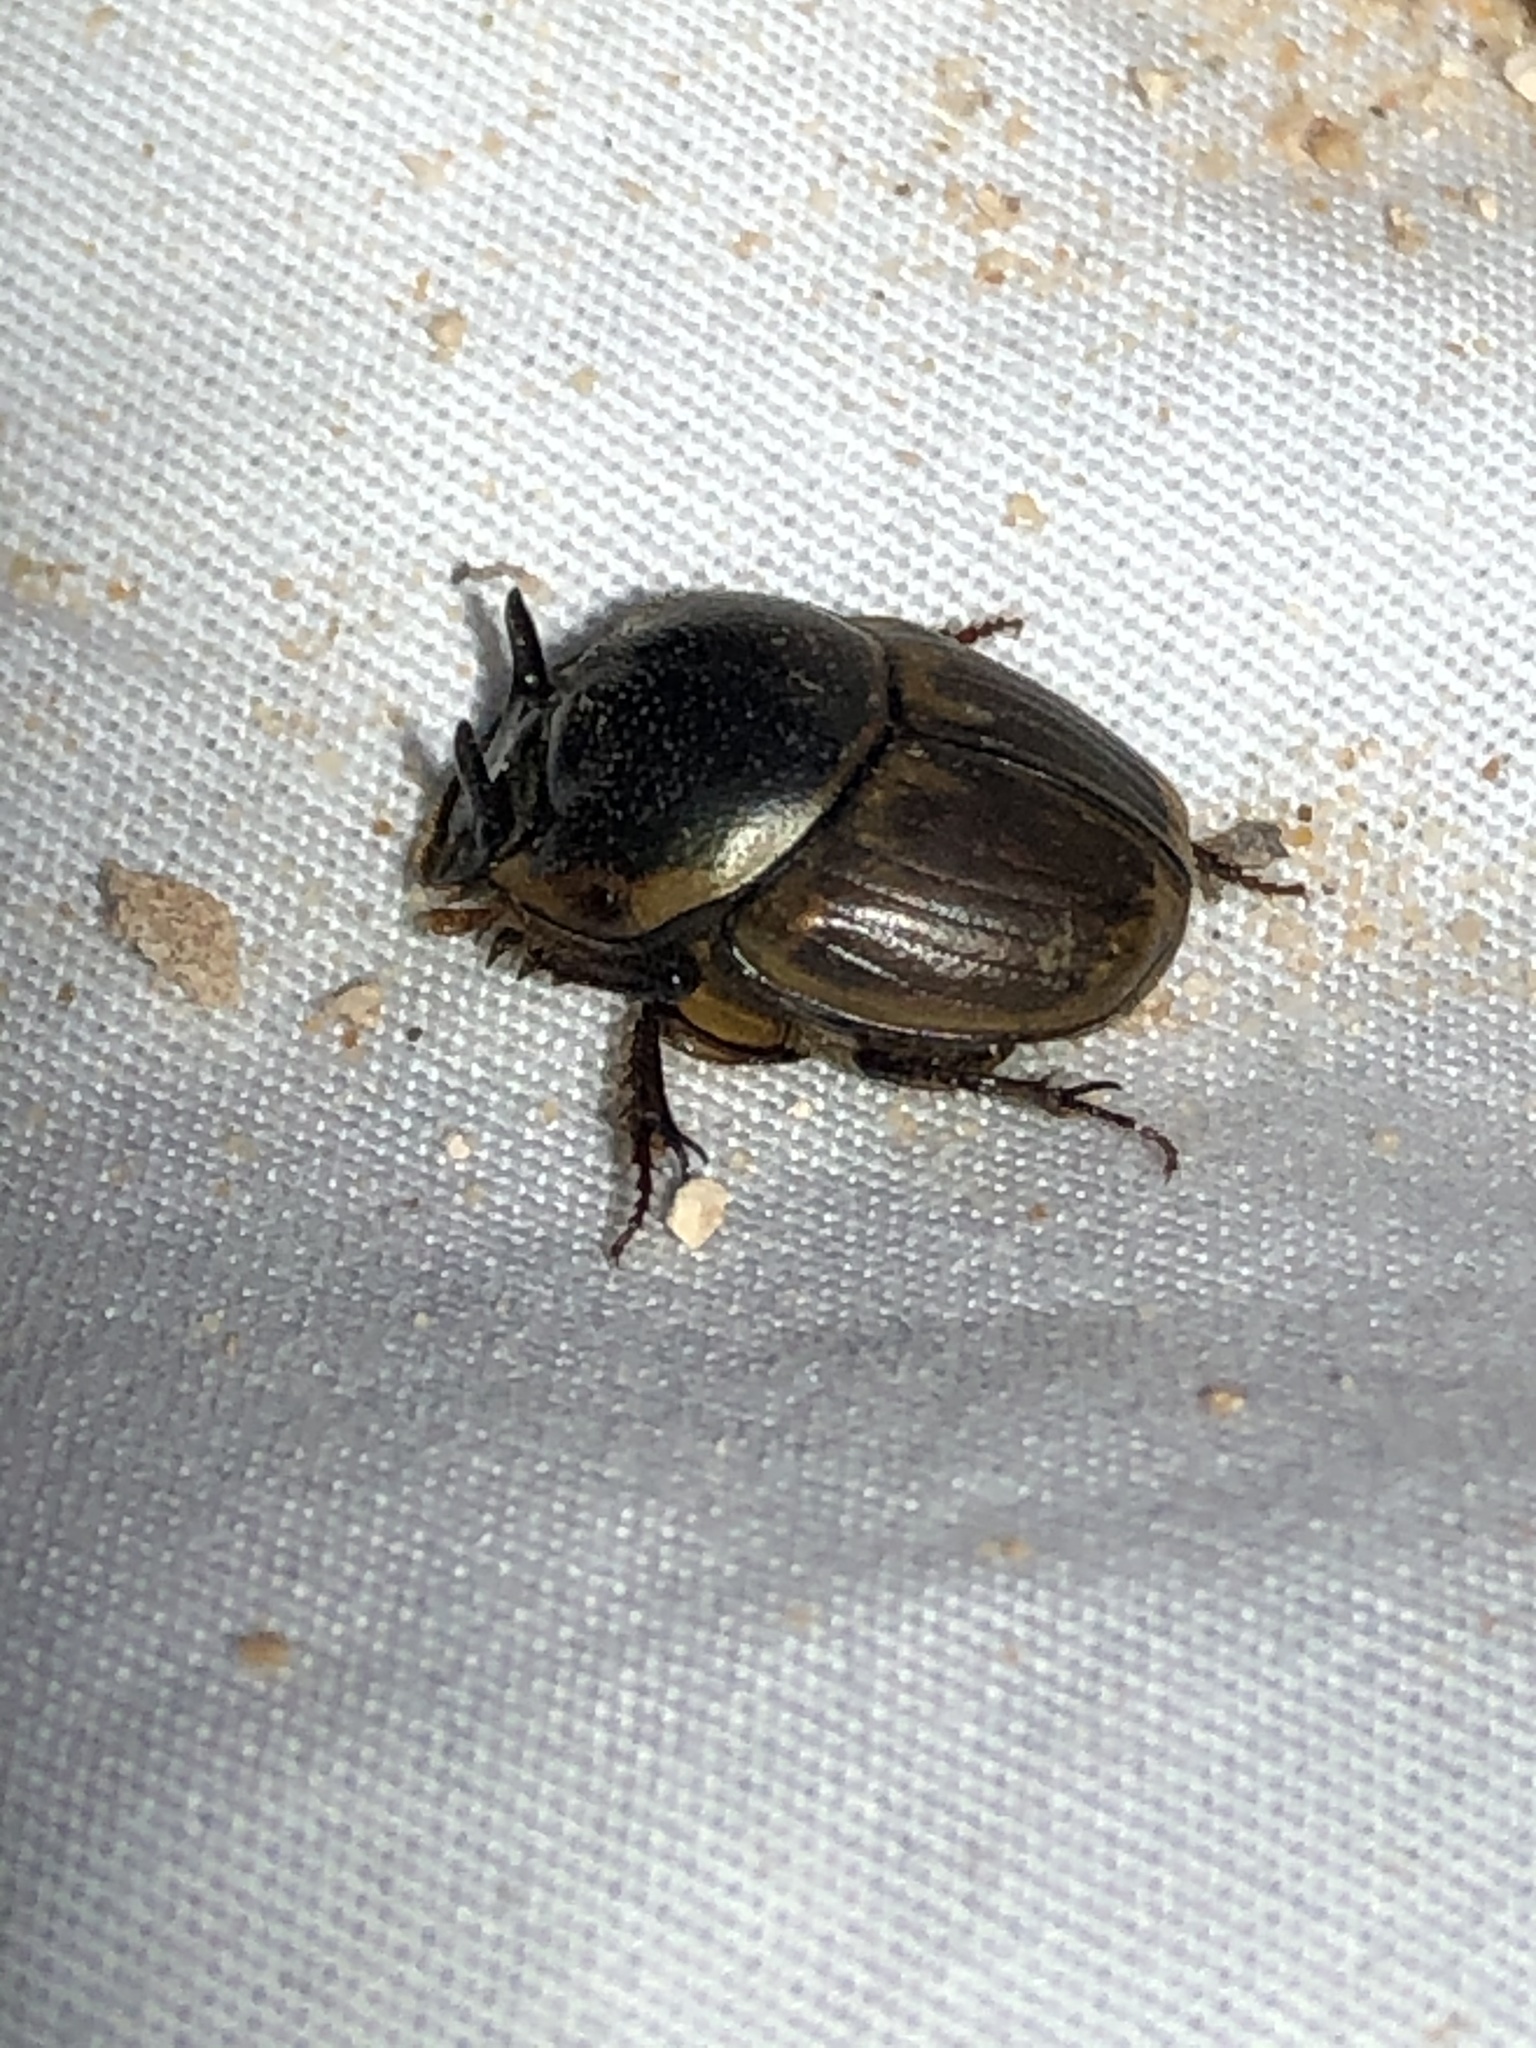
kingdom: Animalia
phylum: Arthropoda
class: Insecta
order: Coleoptera
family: Scarabaeidae
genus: Digitonthophagus
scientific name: Digitonthophagus gazella
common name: Brown dung beetle
